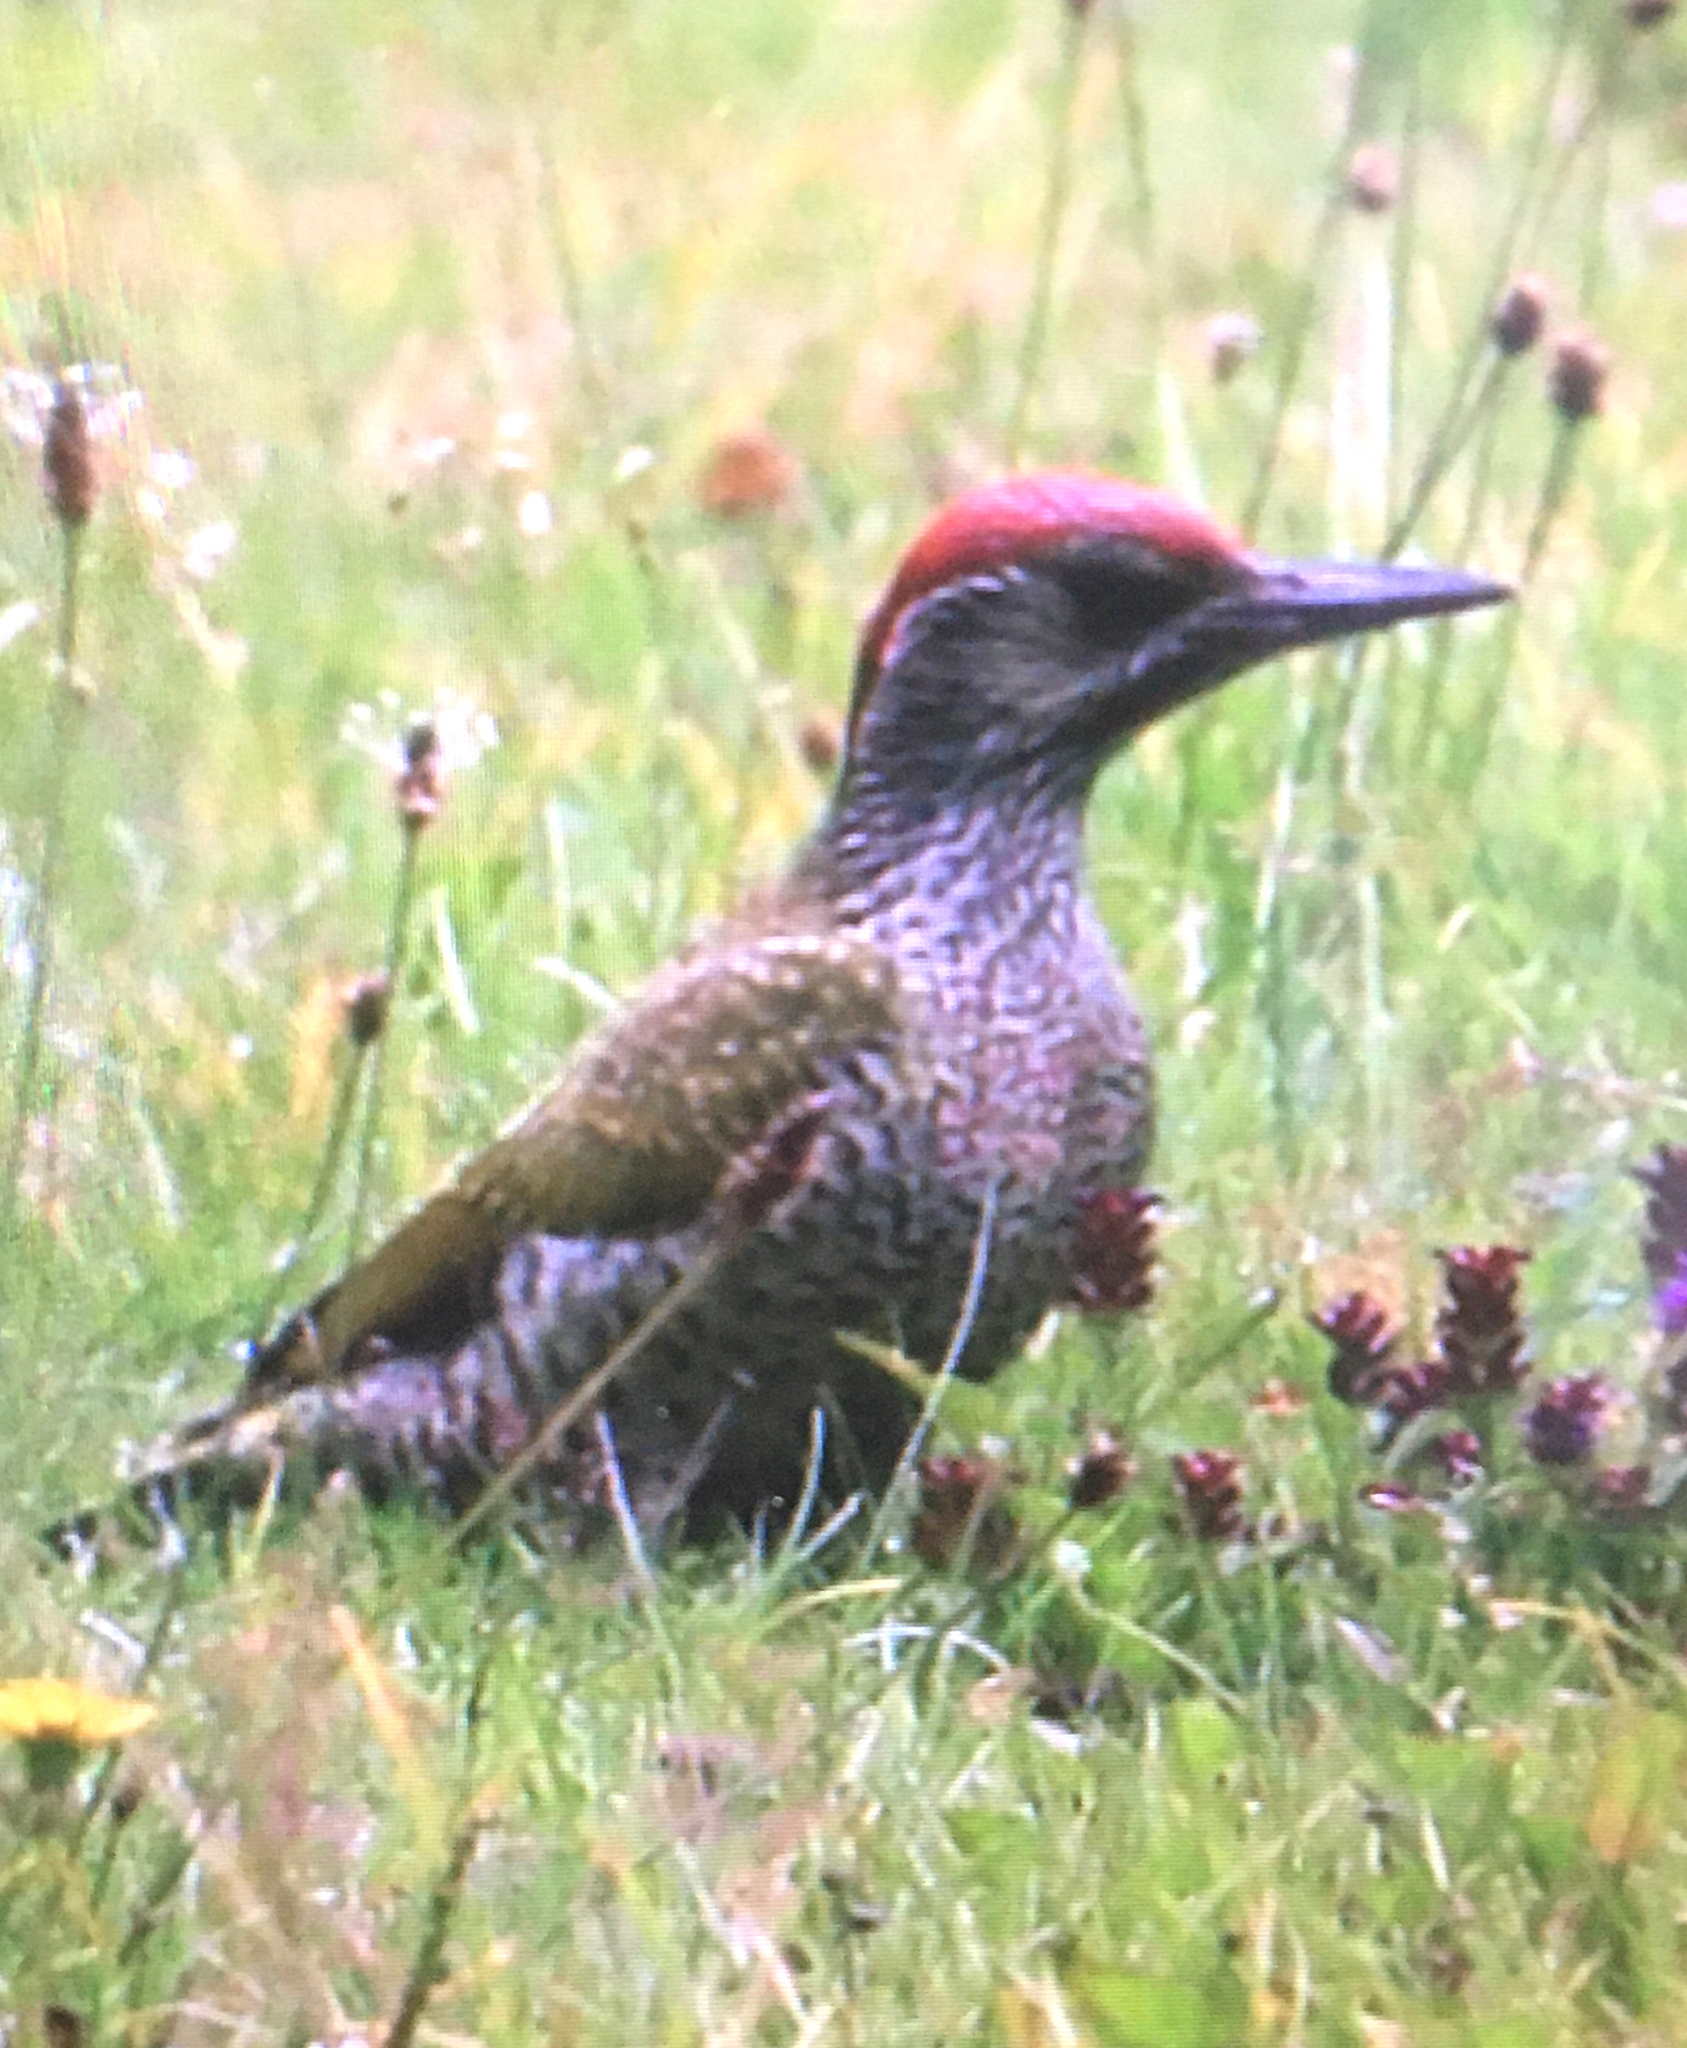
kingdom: Animalia
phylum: Chordata
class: Aves
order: Piciformes
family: Picidae
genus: Picus
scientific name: Picus viridis
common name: European green woodpecker
